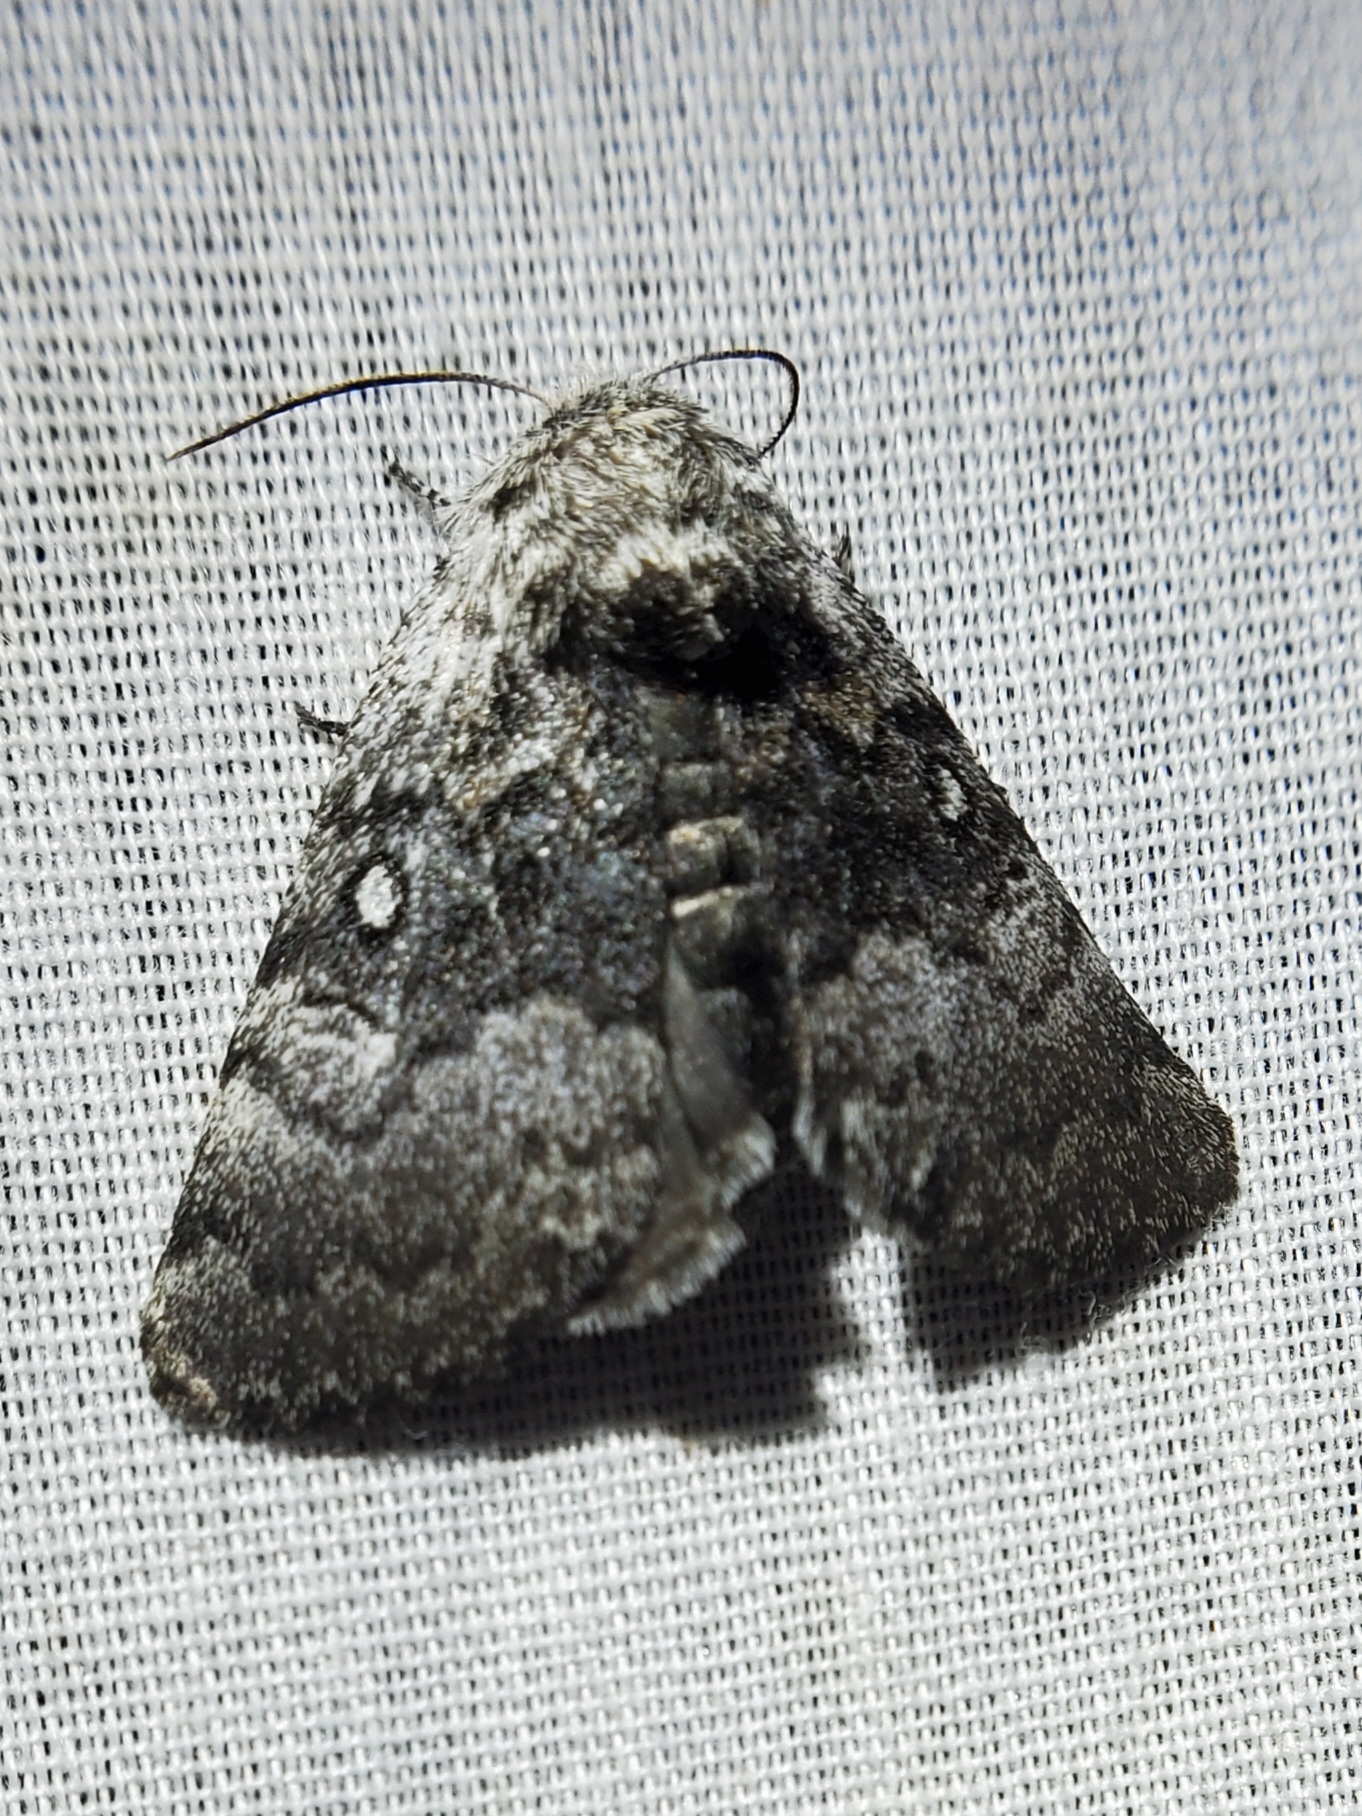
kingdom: Animalia
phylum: Arthropoda
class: Insecta
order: Lepidoptera
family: Noctuidae
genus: Colocasia
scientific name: Colocasia propinquilinea
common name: Close-banded demas
